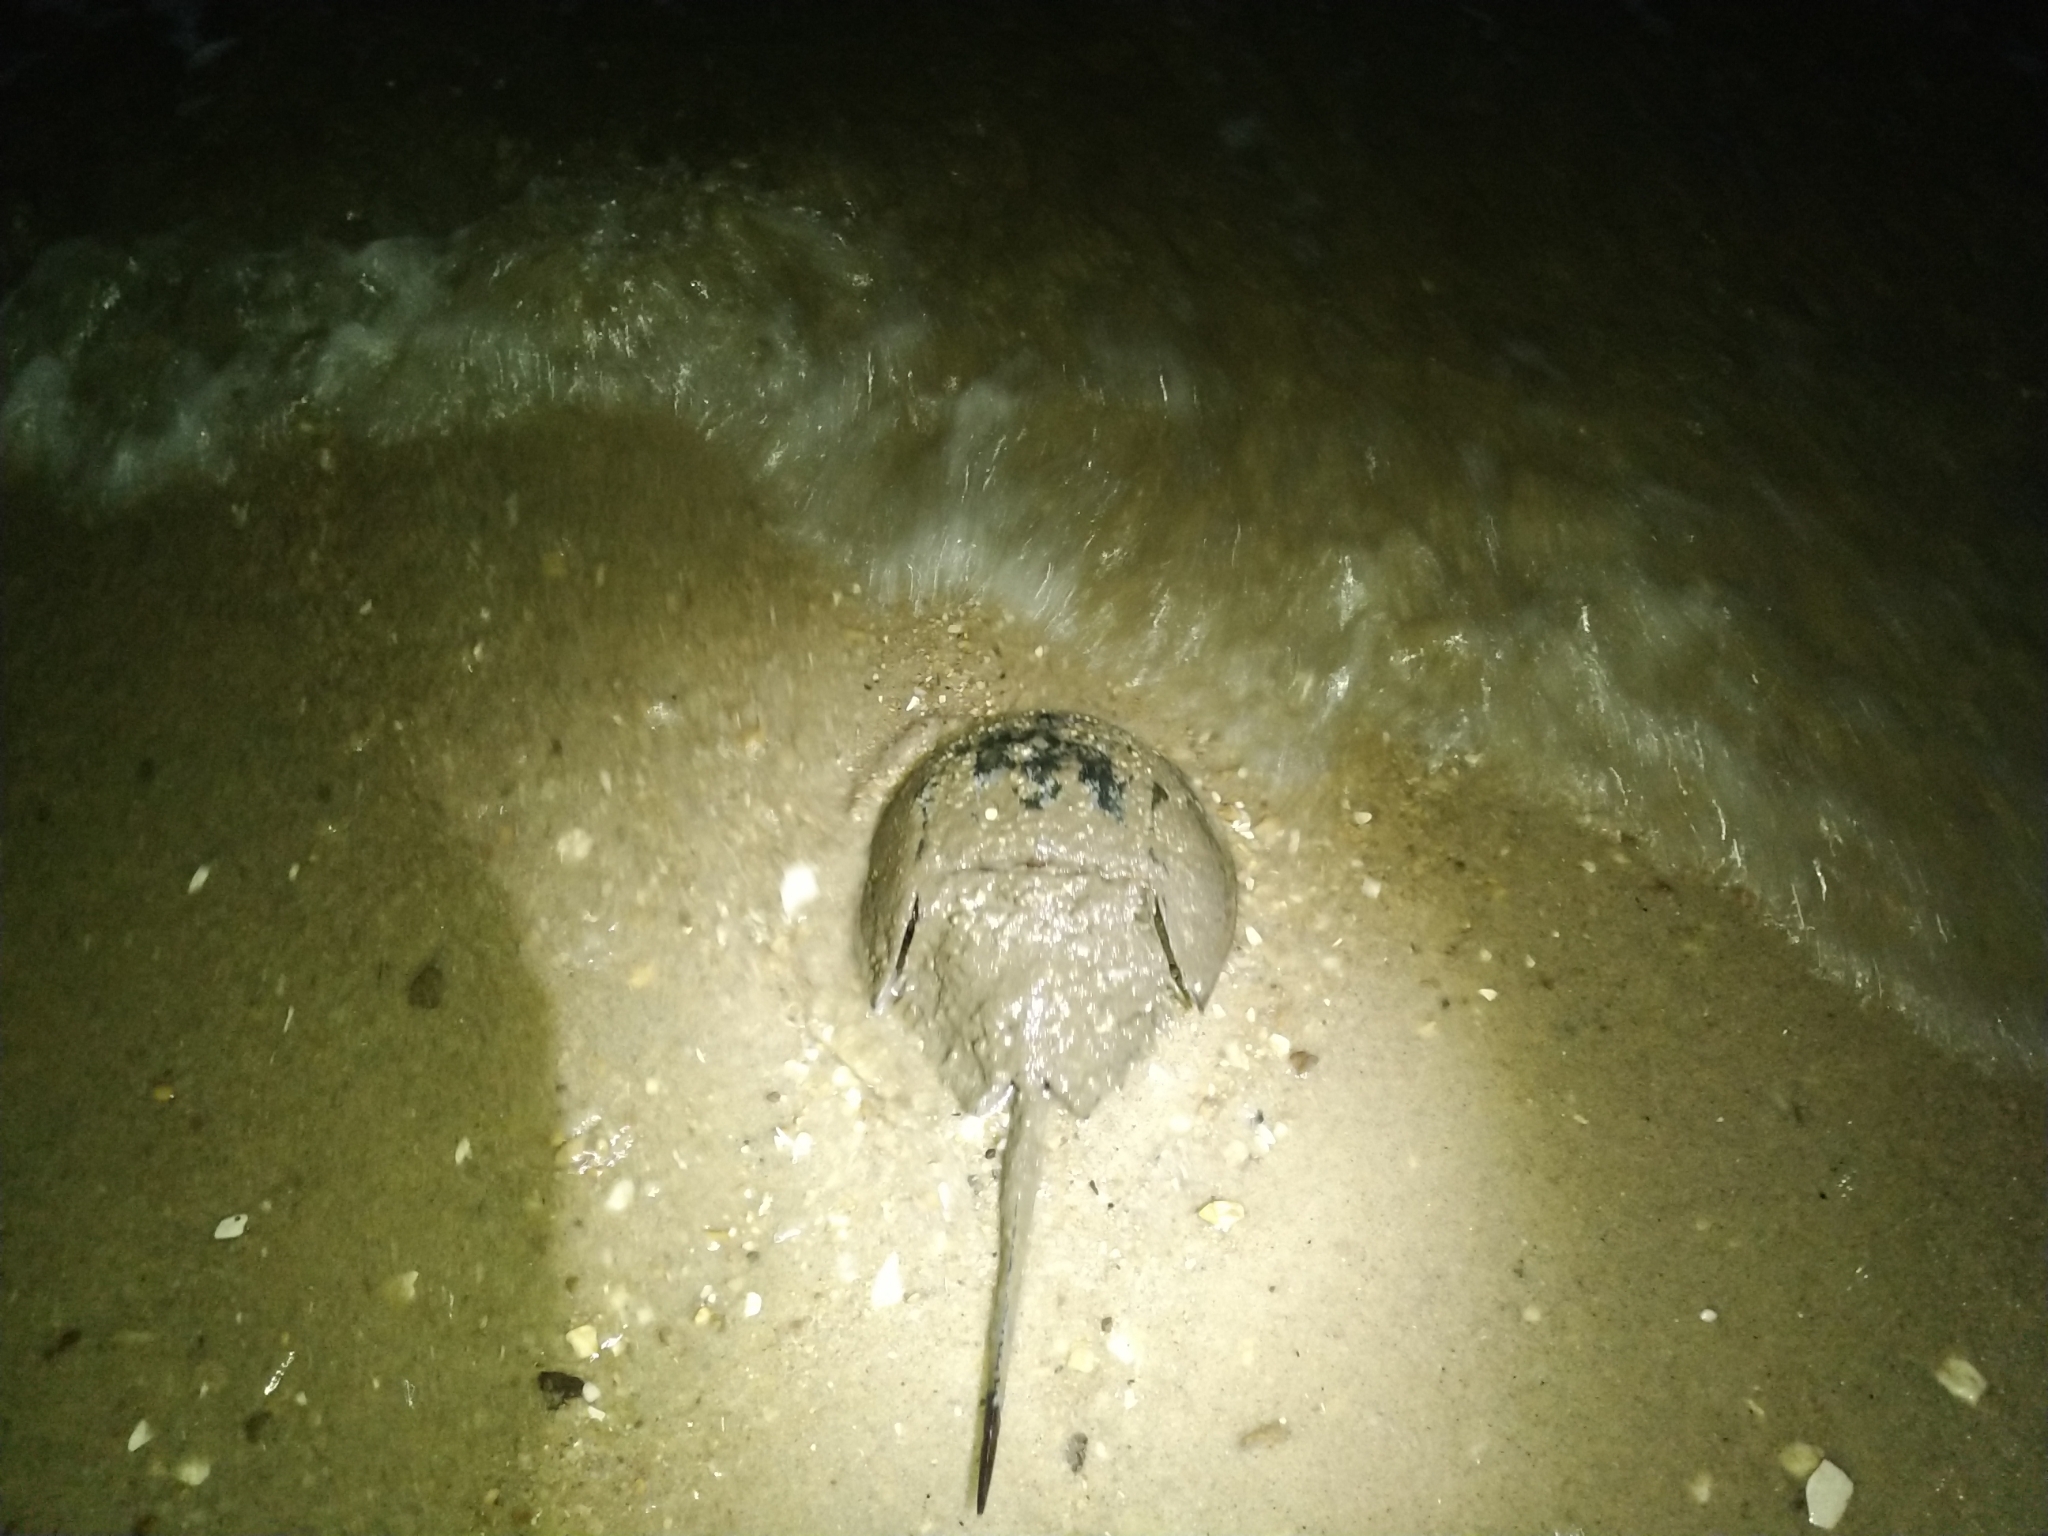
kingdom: Animalia
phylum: Arthropoda
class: Merostomata
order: Xiphosurida
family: Limulidae
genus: Limulus
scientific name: Limulus polyphemus
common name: Horseshoe crab
